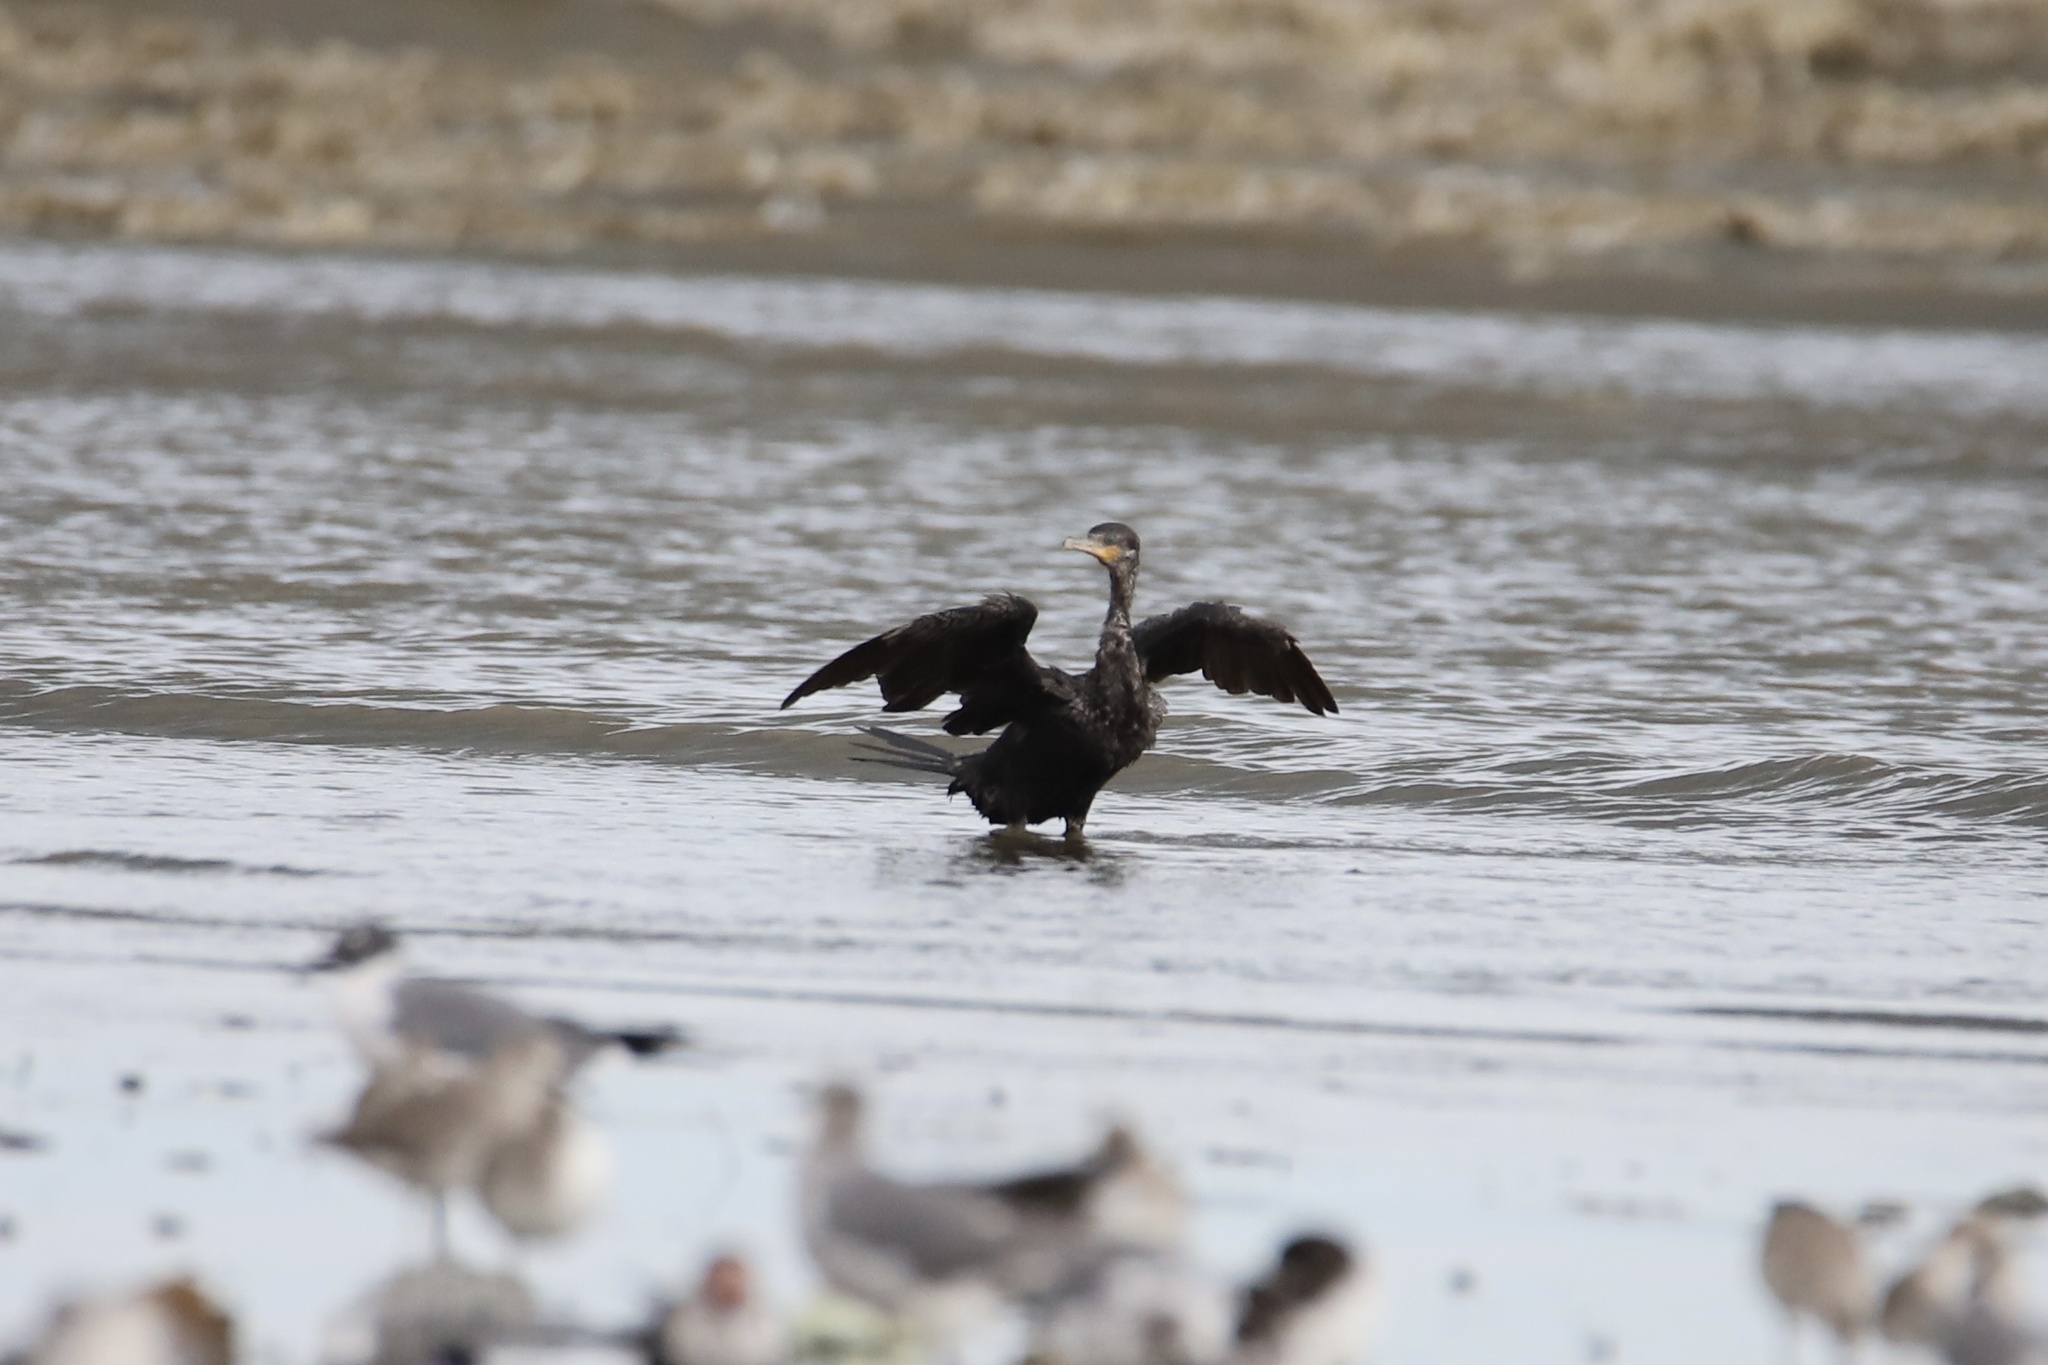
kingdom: Animalia
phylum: Chordata
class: Aves
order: Suliformes
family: Phalacrocoracidae
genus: Phalacrocorax
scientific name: Phalacrocorax brasilianus
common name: Neotropic cormorant
